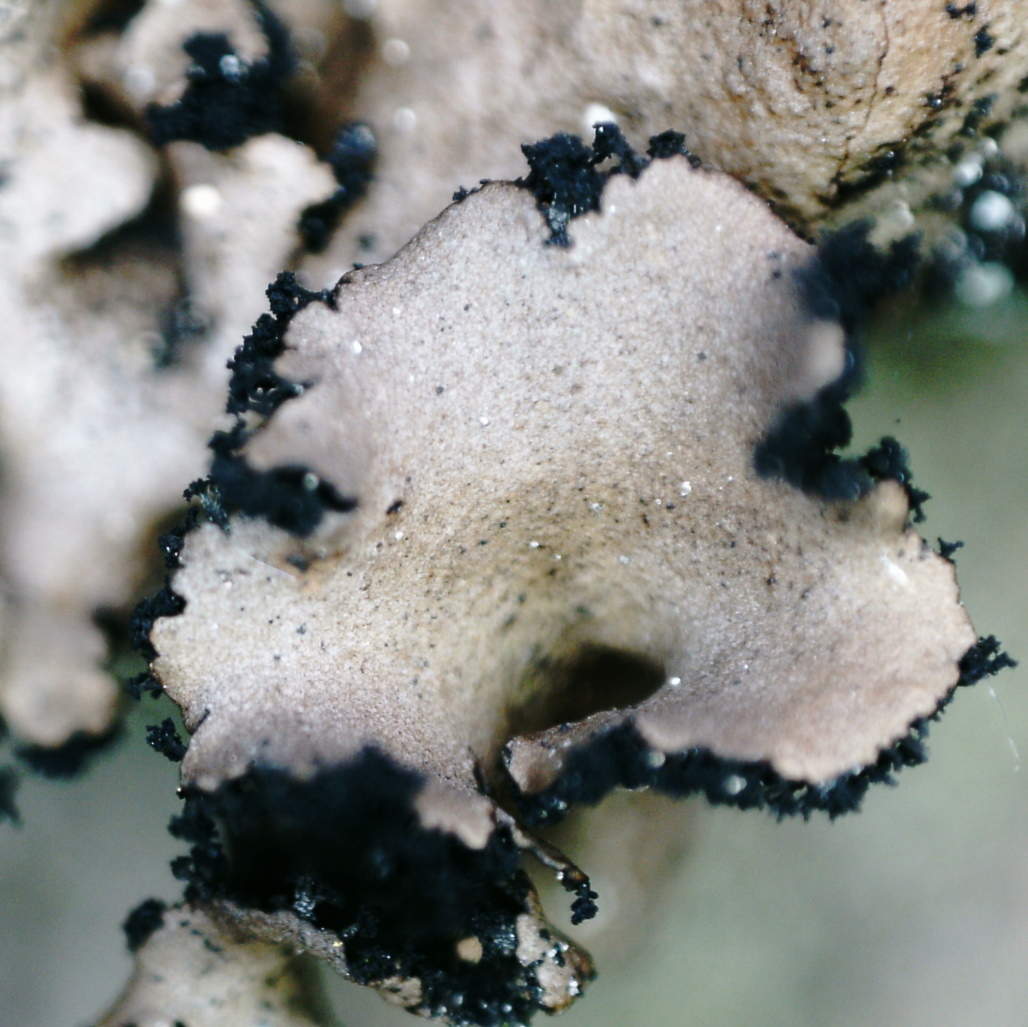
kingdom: Fungi
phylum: Ascomycota
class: Lecanoromycetes
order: Umbilicariales
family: Umbilicariaceae
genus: Umbilicaria
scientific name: Umbilicaria polyrrhiza
